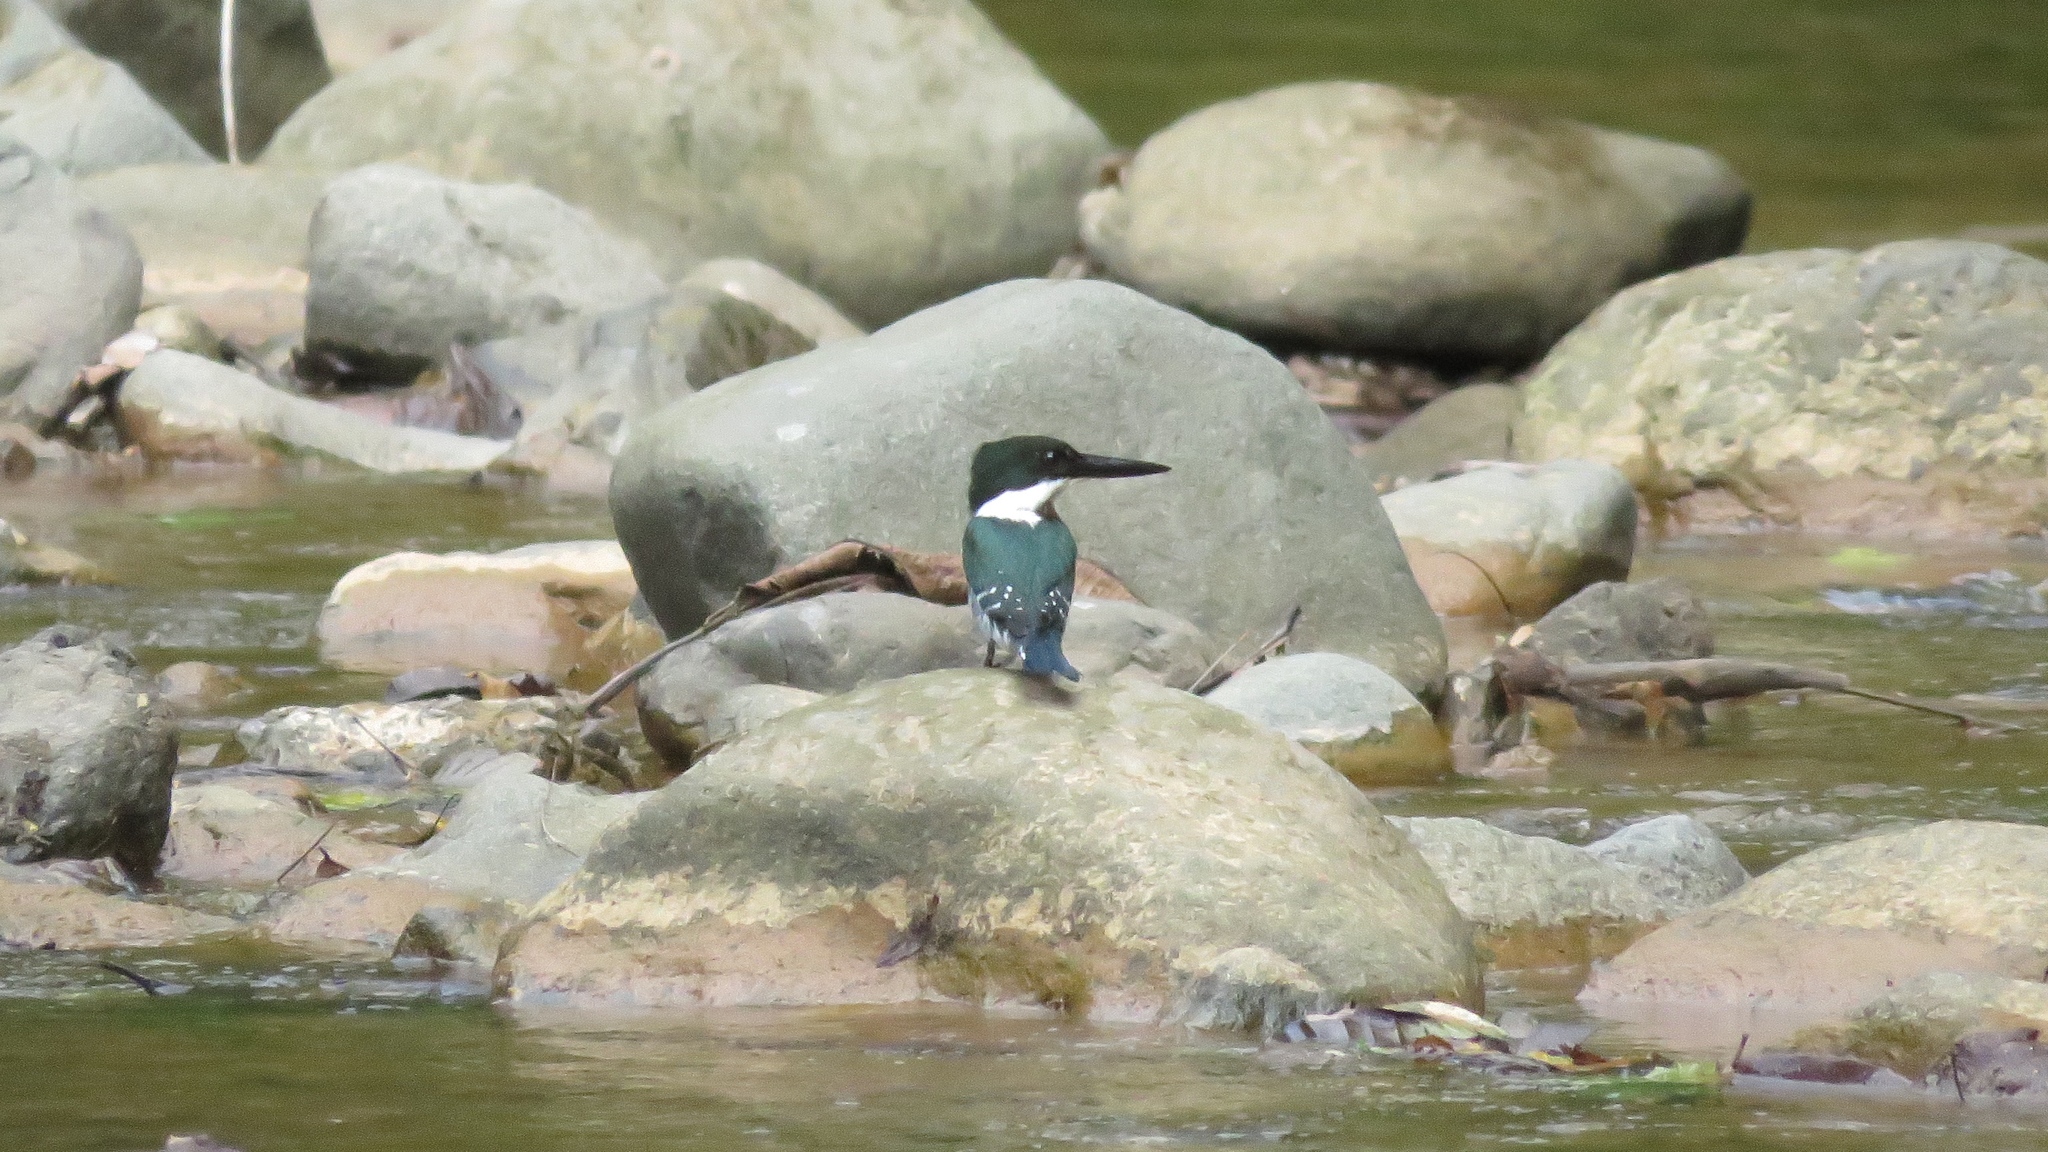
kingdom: Animalia
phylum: Chordata
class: Aves
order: Coraciiformes
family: Alcedinidae
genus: Chloroceryle
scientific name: Chloroceryle americana
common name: Green kingfisher
